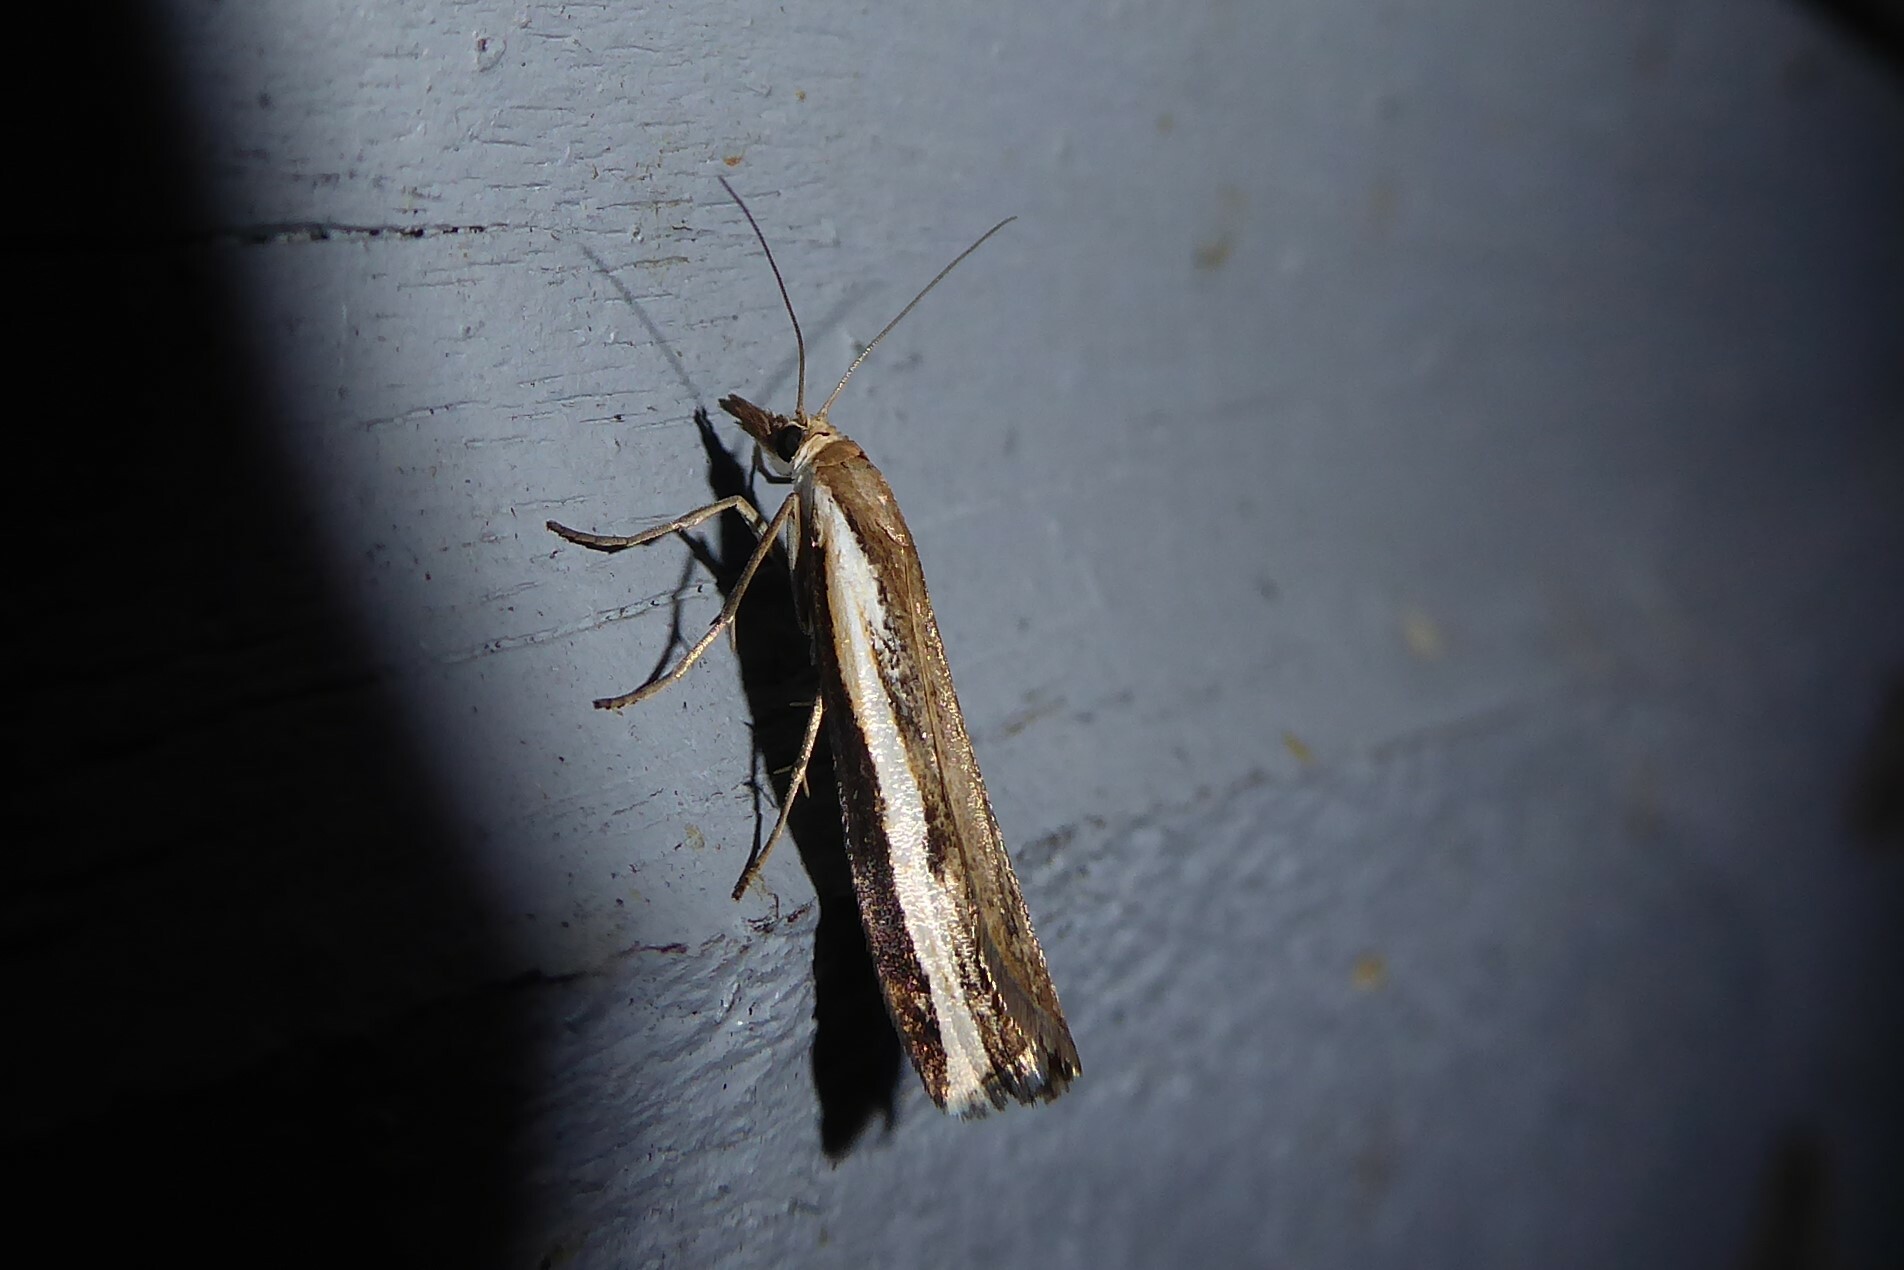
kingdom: Animalia
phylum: Arthropoda
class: Insecta
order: Lepidoptera
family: Crambidae
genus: Orocrambus
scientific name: Orocrambus flexuosellus
